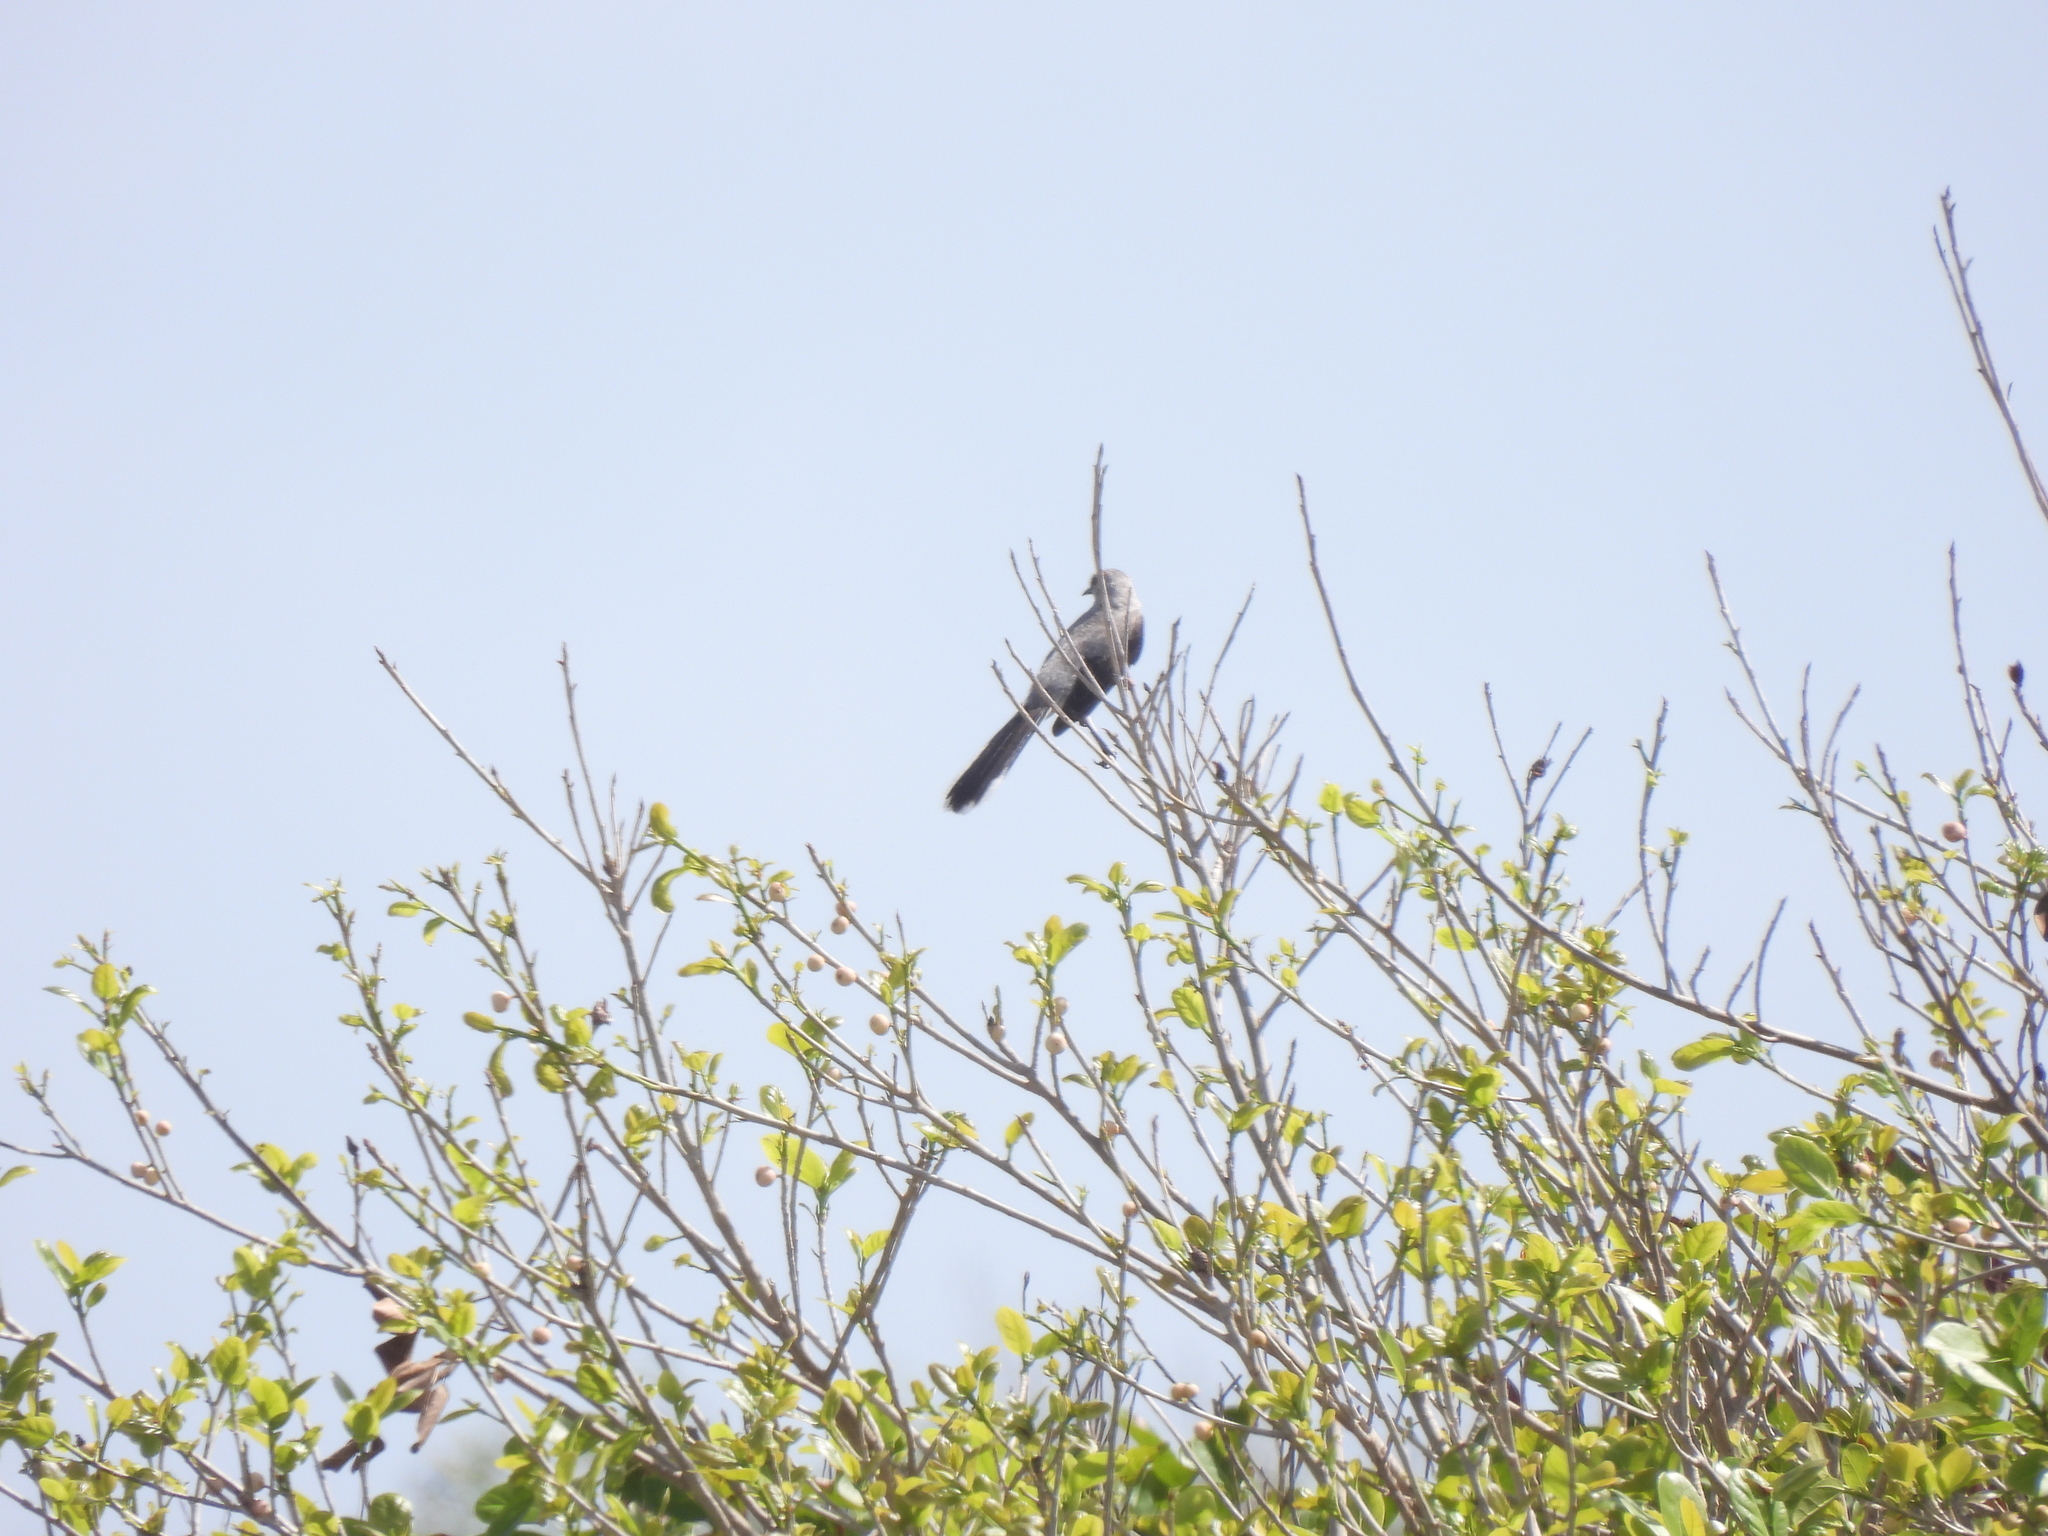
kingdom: Animalia
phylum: Chordata
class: Aves
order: Passeriformes
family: Mimidae
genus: Mimus
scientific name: Mimus gilvus
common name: Tropical mockingbird
